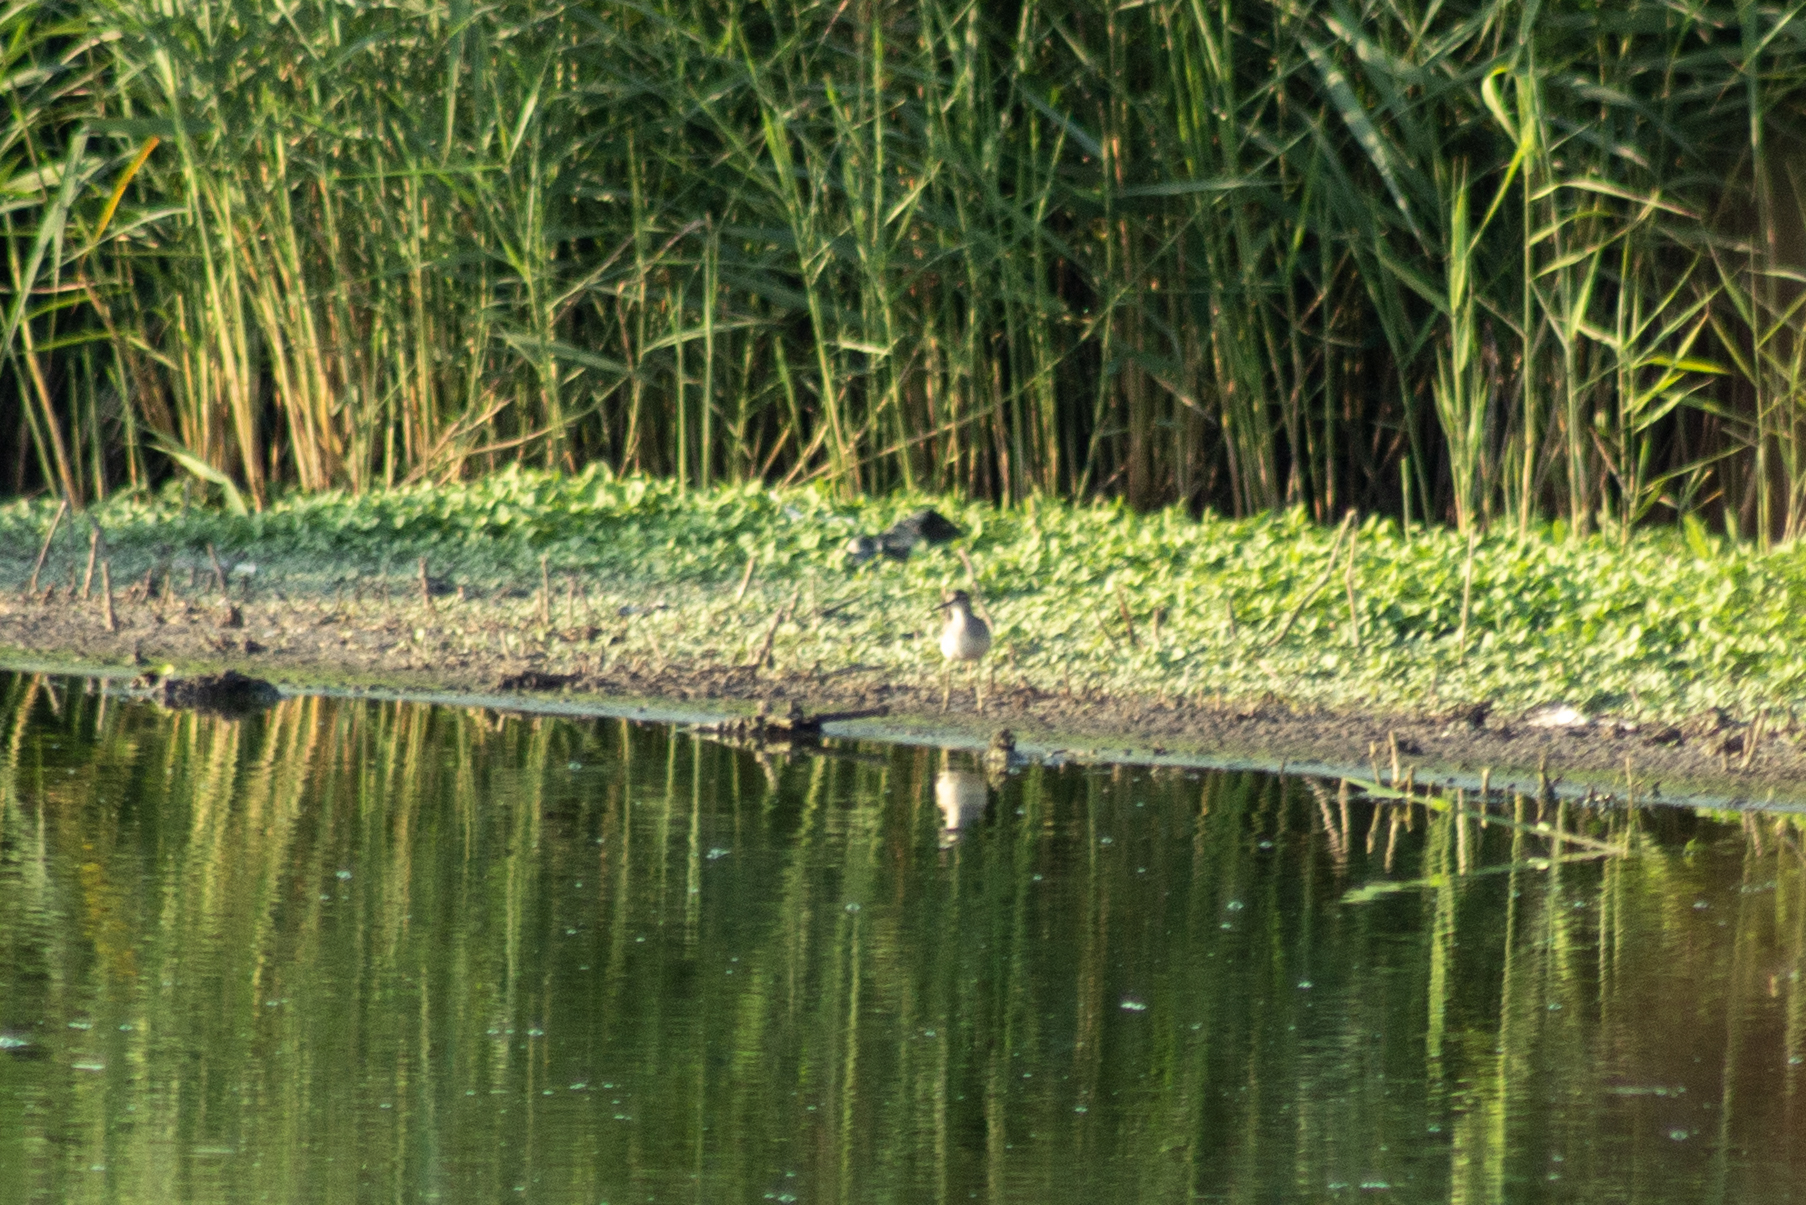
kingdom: Animalia
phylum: Chordata
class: Aves
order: Charadriiformes
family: Scolopacidae
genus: Tringa
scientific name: Tringa glareola
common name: Wood sandpiper
